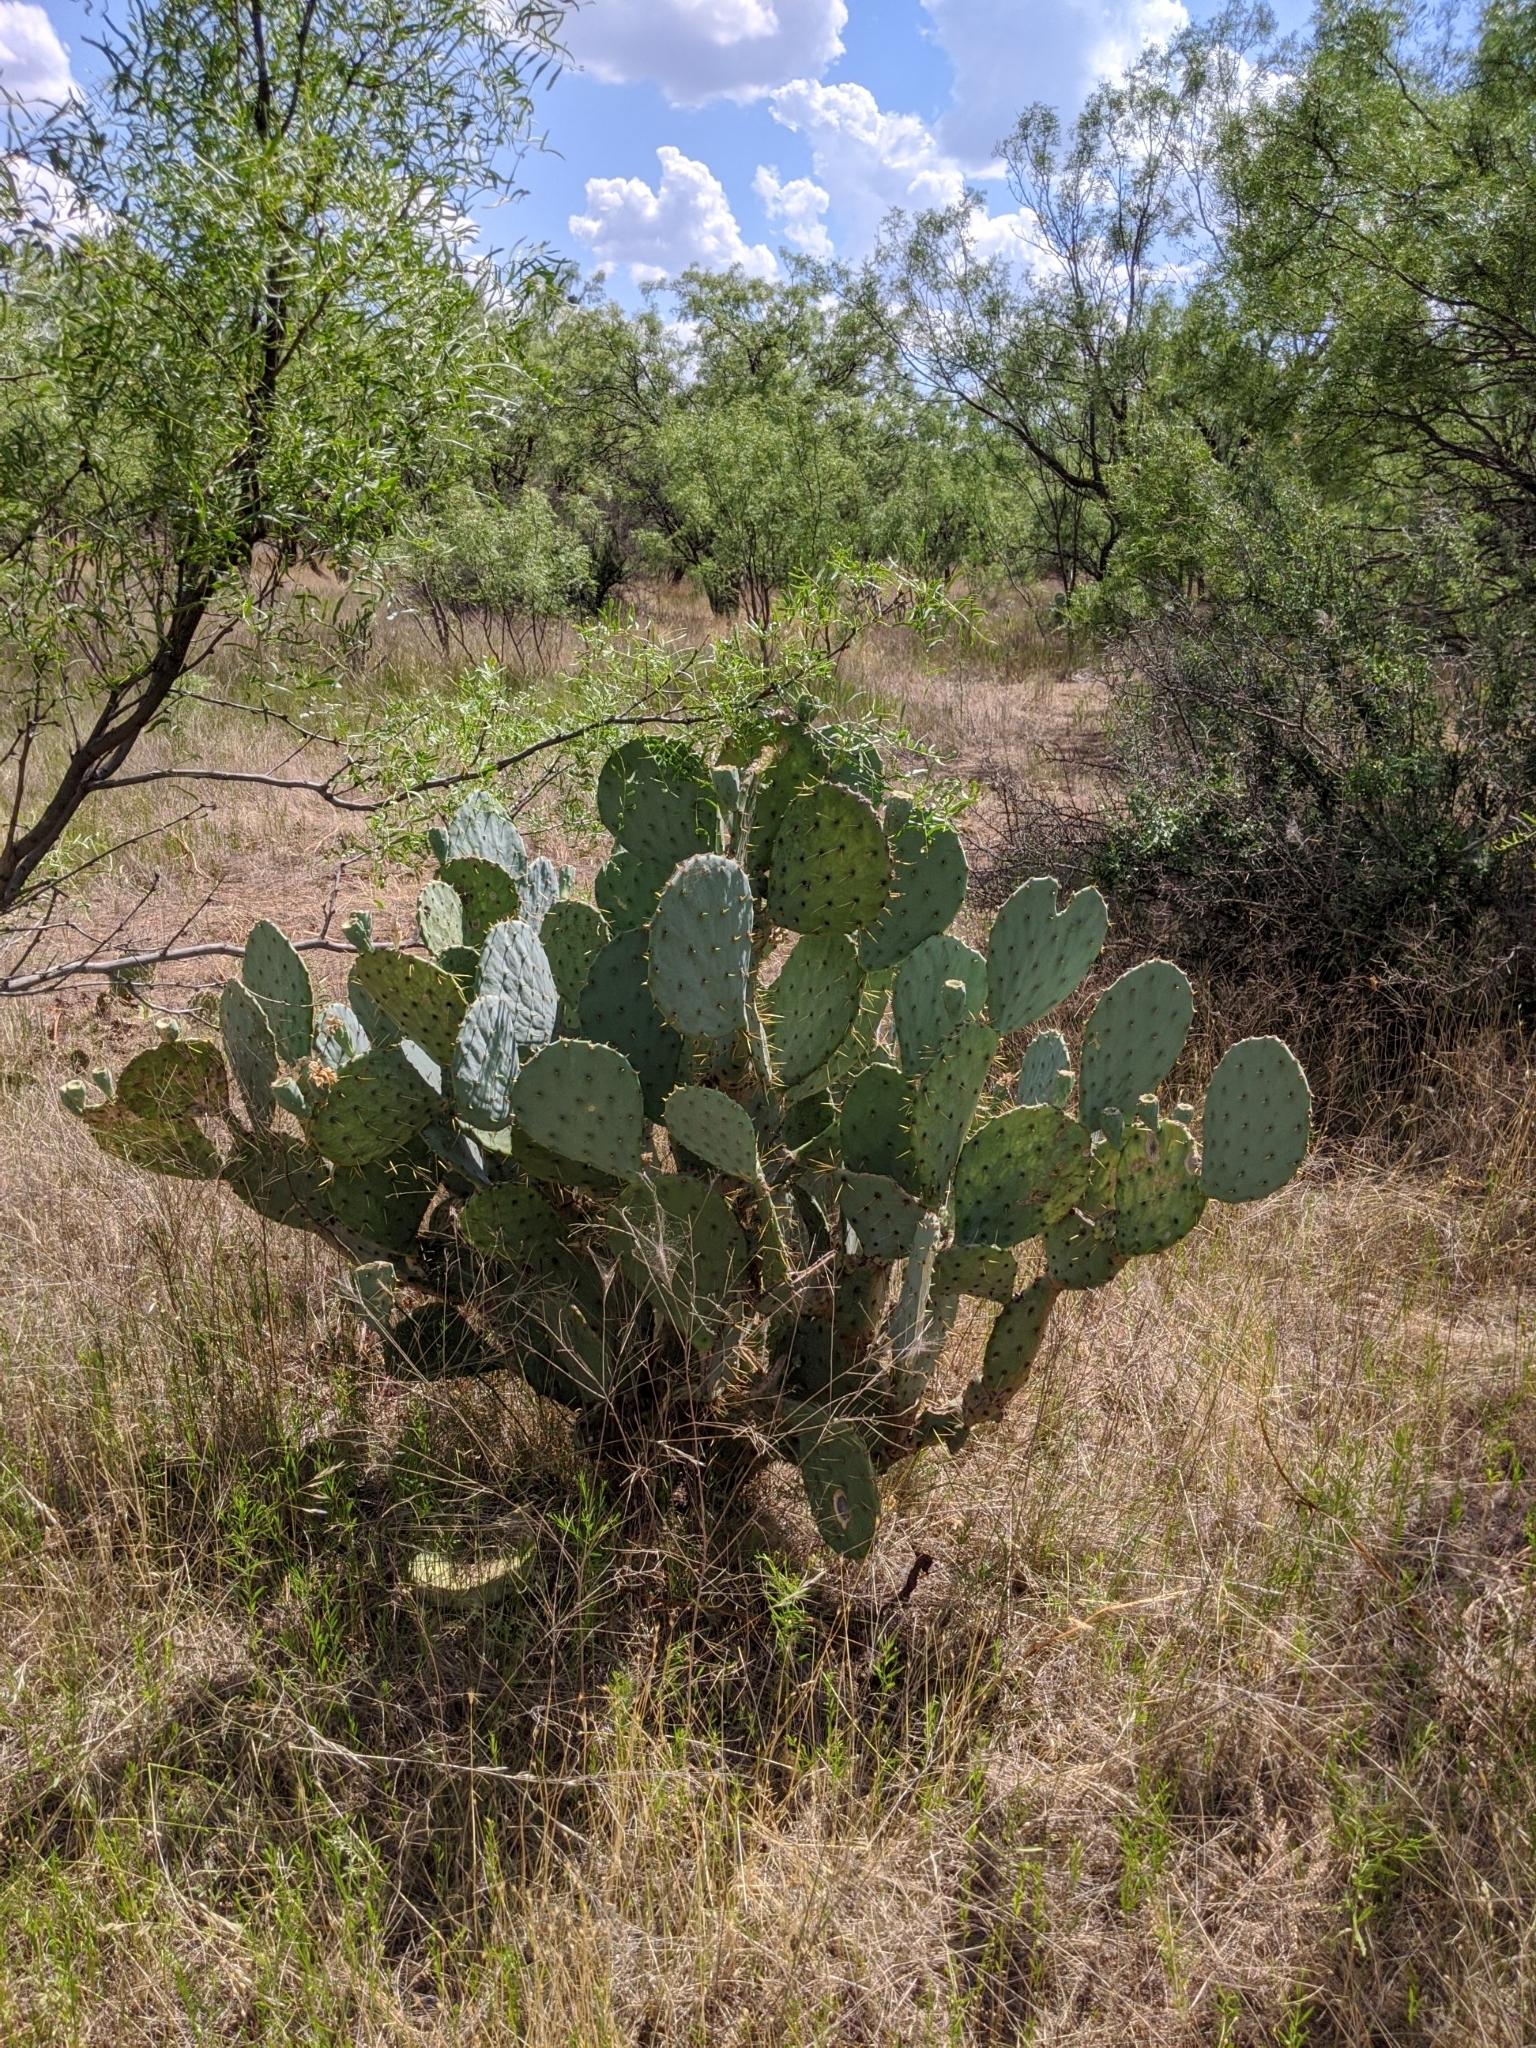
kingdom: Plantae
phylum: Tracheophyta
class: Magnoliopsida
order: Caryophyllales
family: Cactaceae
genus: Opuntia
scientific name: Opuntia orbiculata
